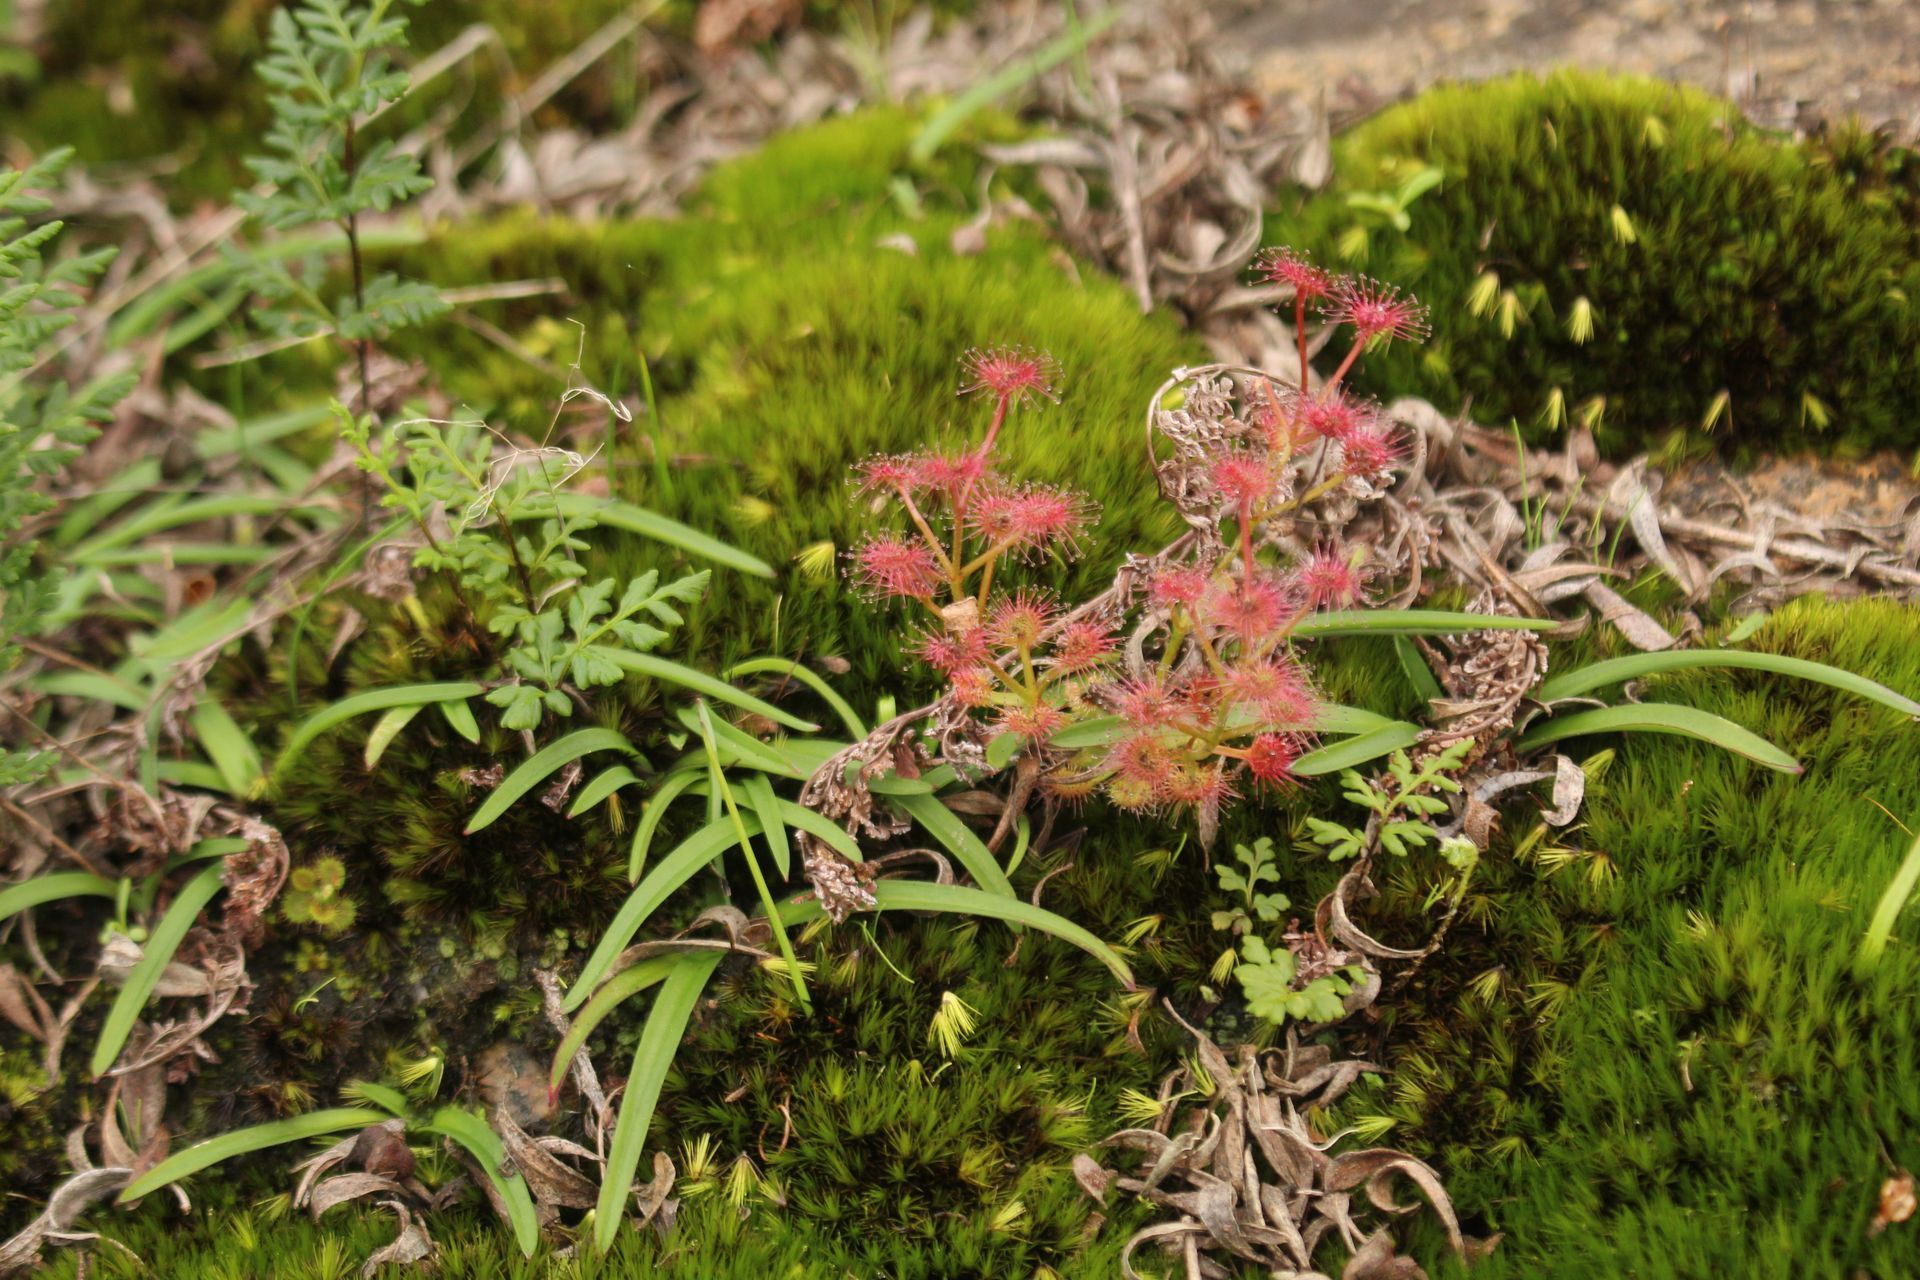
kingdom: Plantae
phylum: Tracheophyta
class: Magnoliopsida
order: Caryophyllales
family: Droseraceae
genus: Drosera
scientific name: Drosera stolonifera
